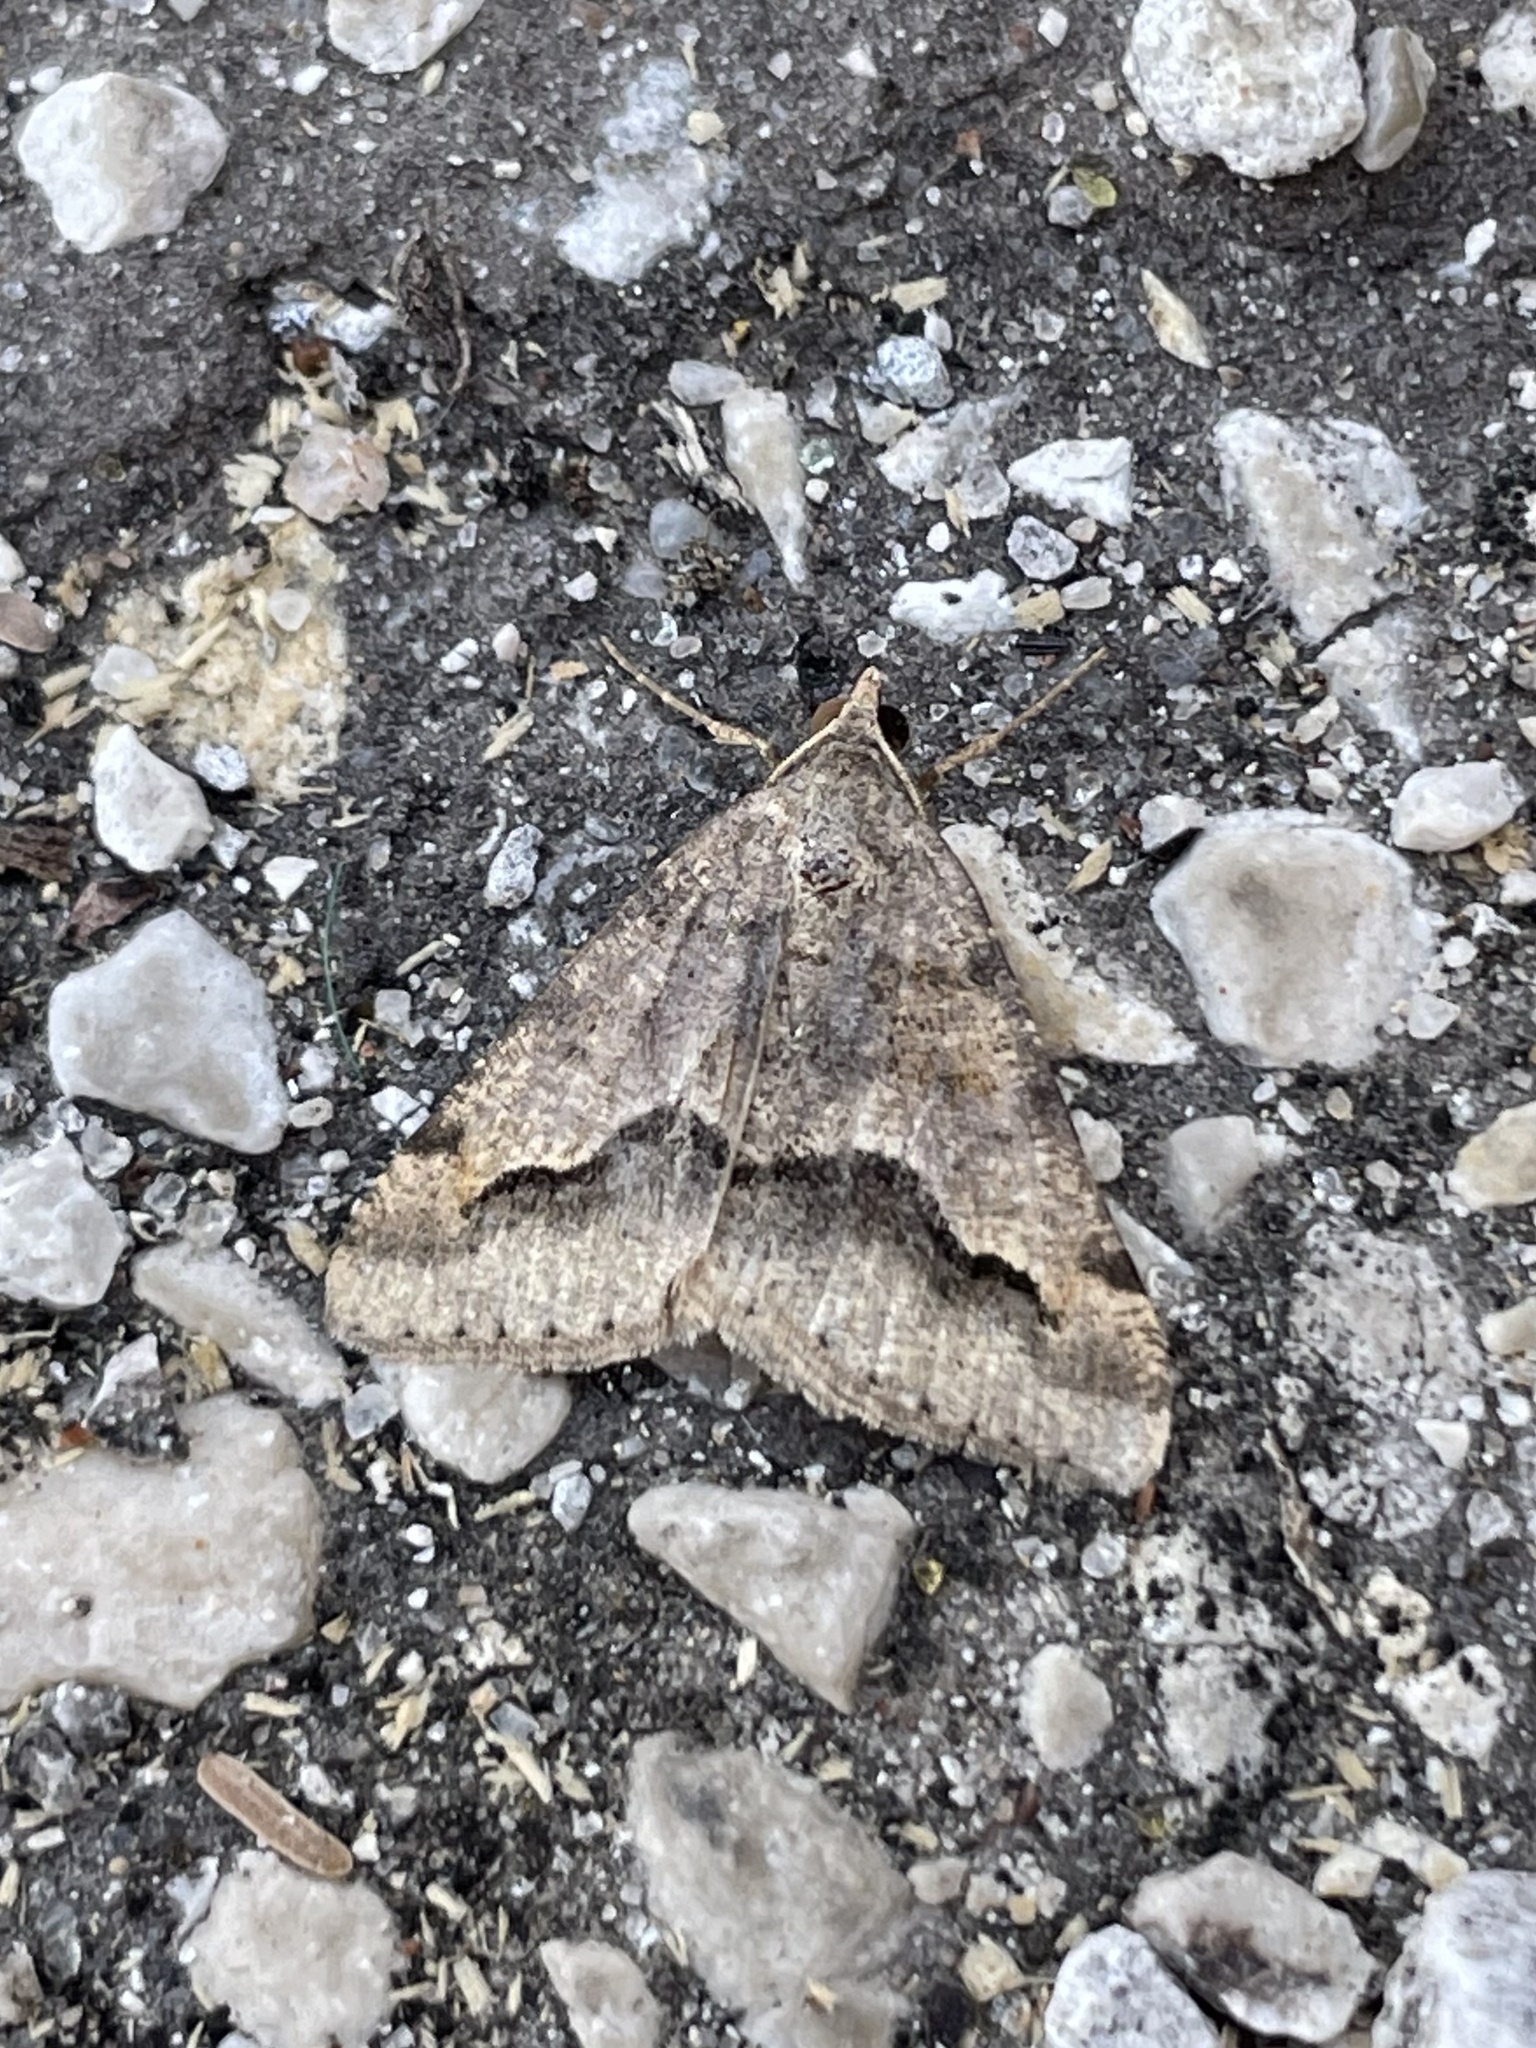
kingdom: Animalia
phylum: Arthropoda
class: Insecta
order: Lepidoptera
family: Geometridae
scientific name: Geometridae
